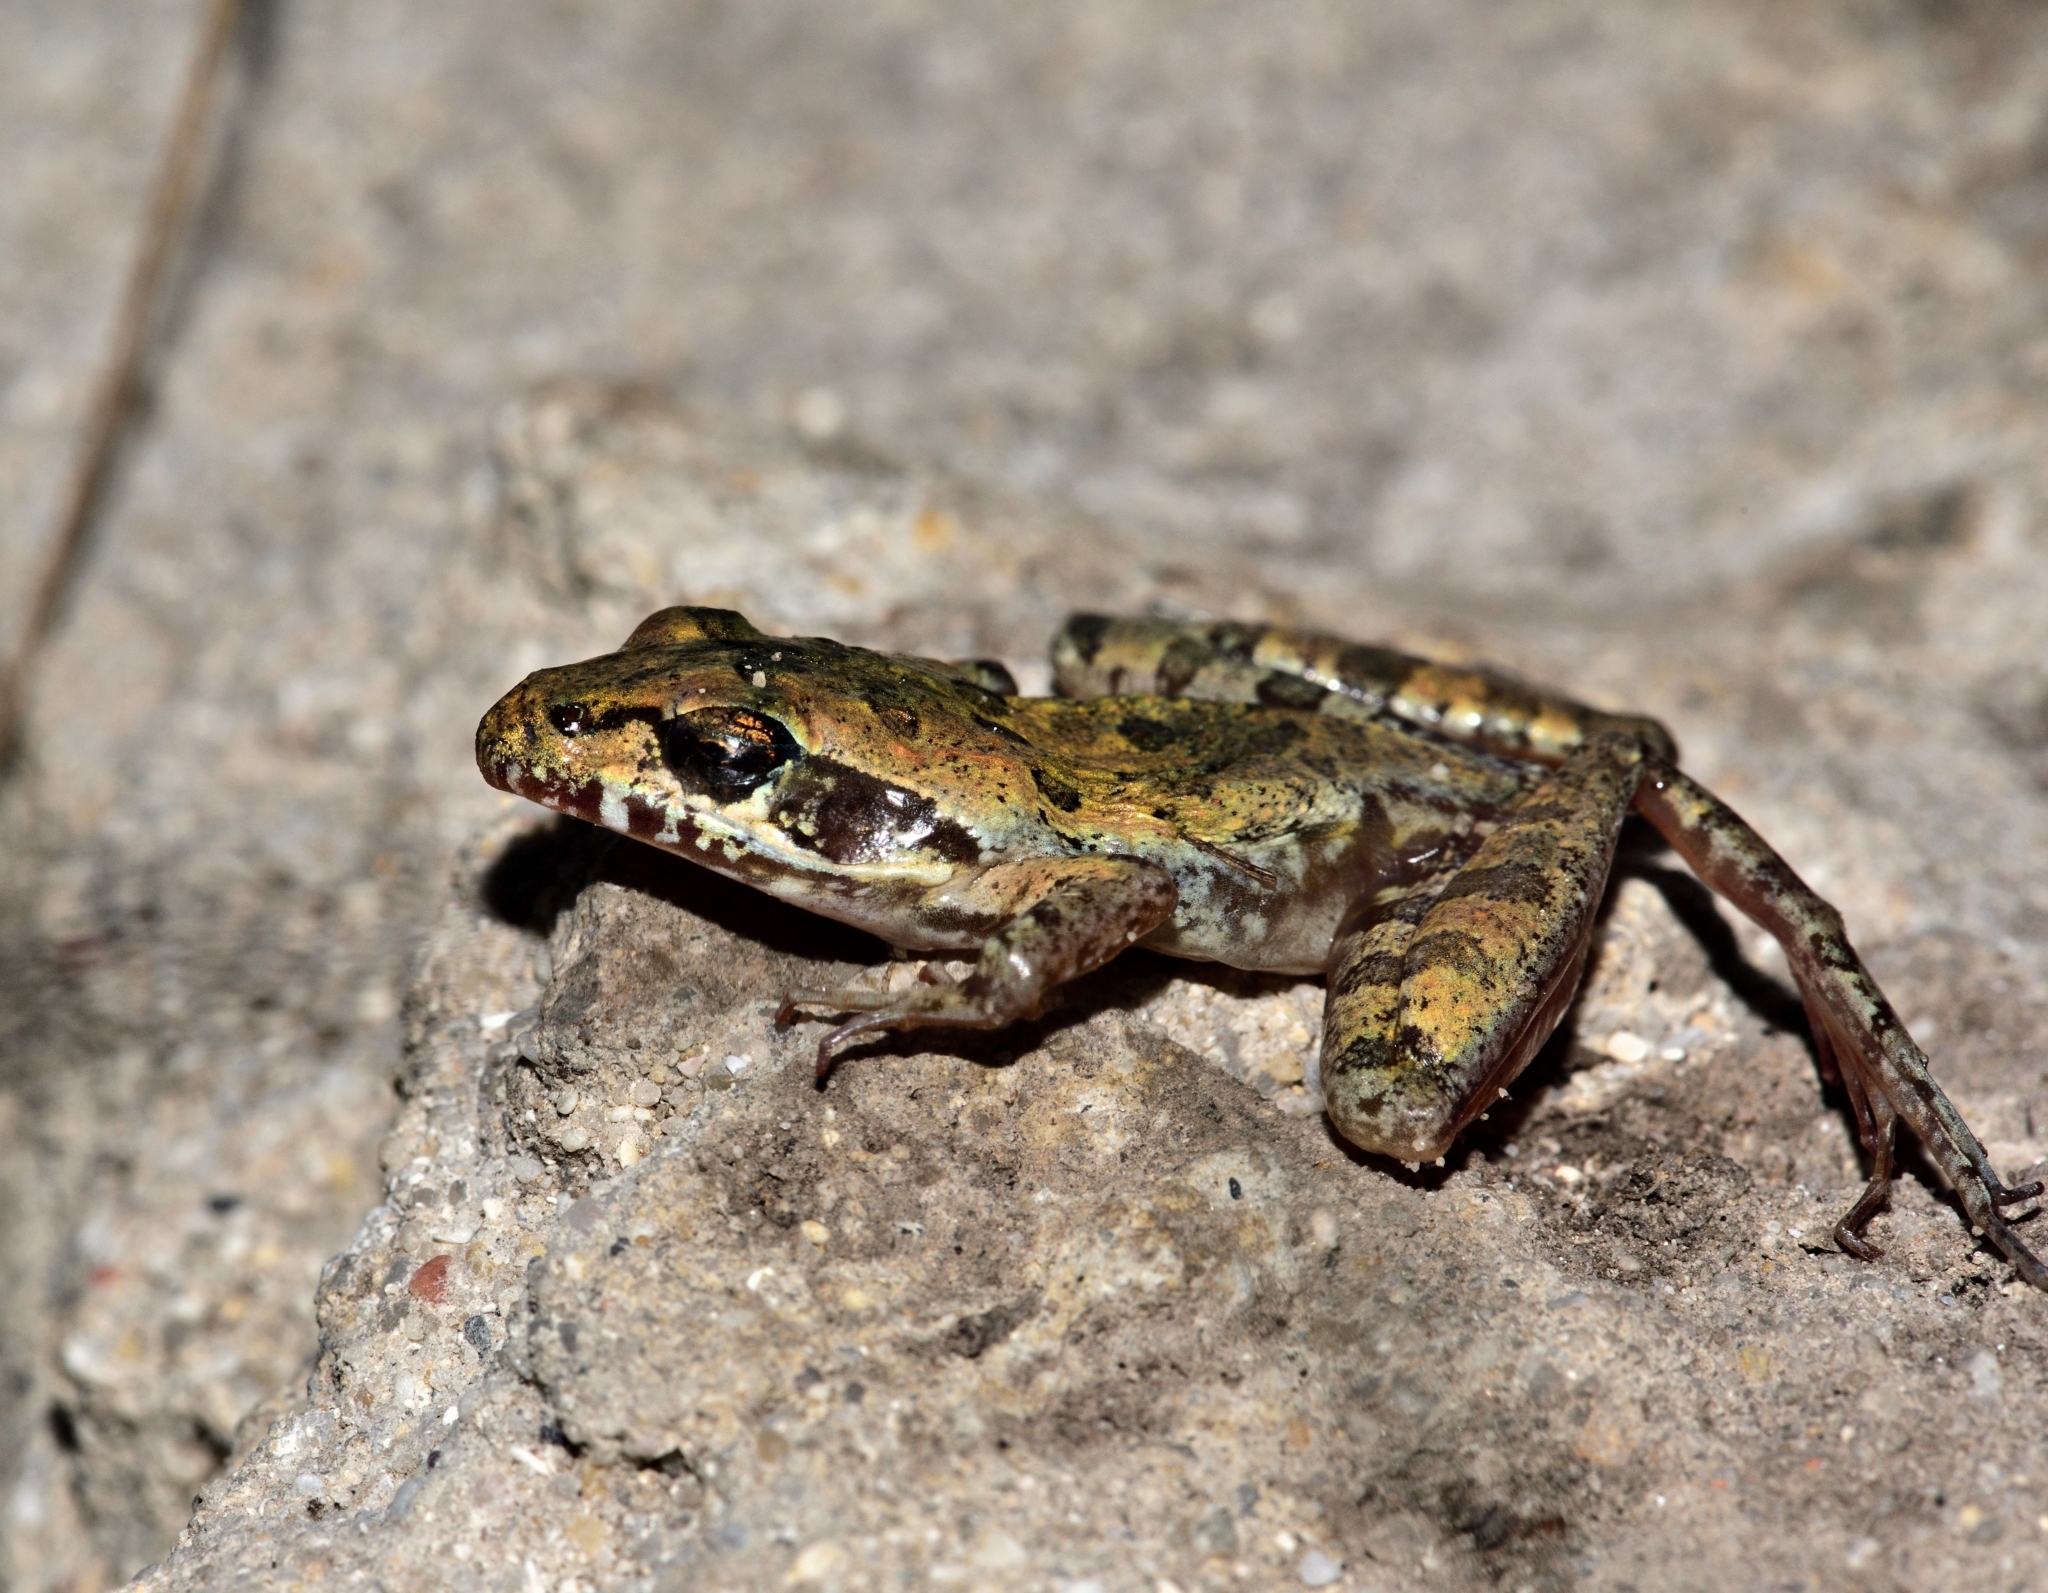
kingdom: Animalia
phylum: Chordata
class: Amphibia
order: Anura
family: Pyxicephalidae
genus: Strongylopus
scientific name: Strongylopus grayii
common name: Gray's stream frog
